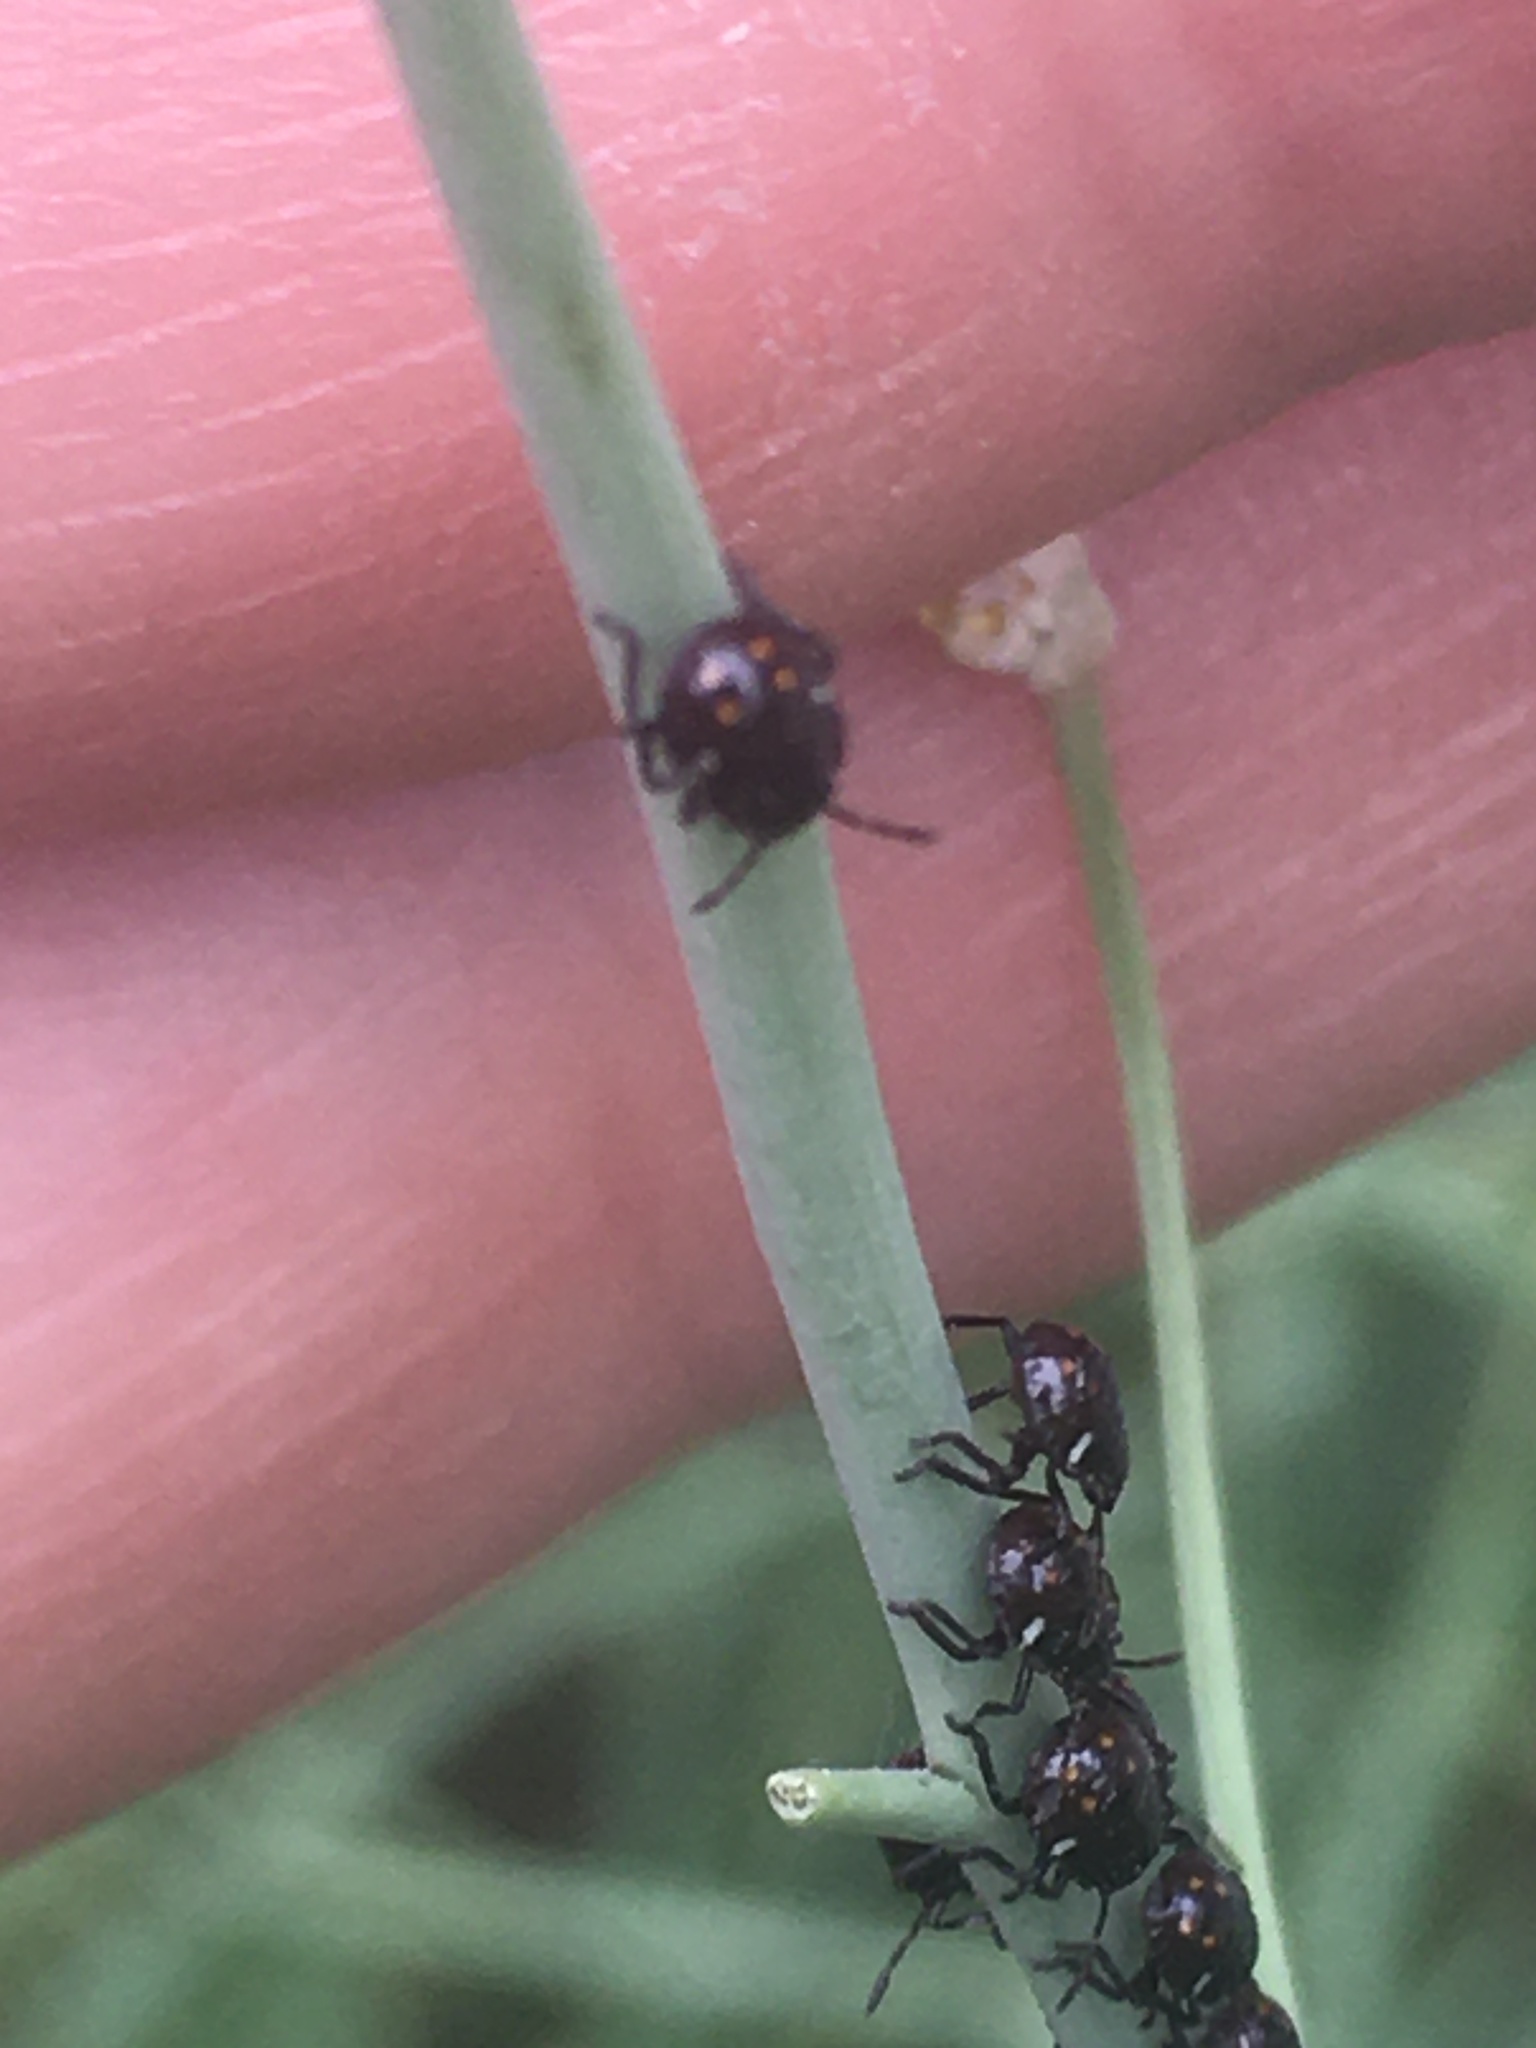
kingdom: Animalia
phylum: Arthropoda
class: Insecta
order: Hemiptera
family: Pentatomidae
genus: Nezara
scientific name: Nezara viridula
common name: Southern green stink bug
